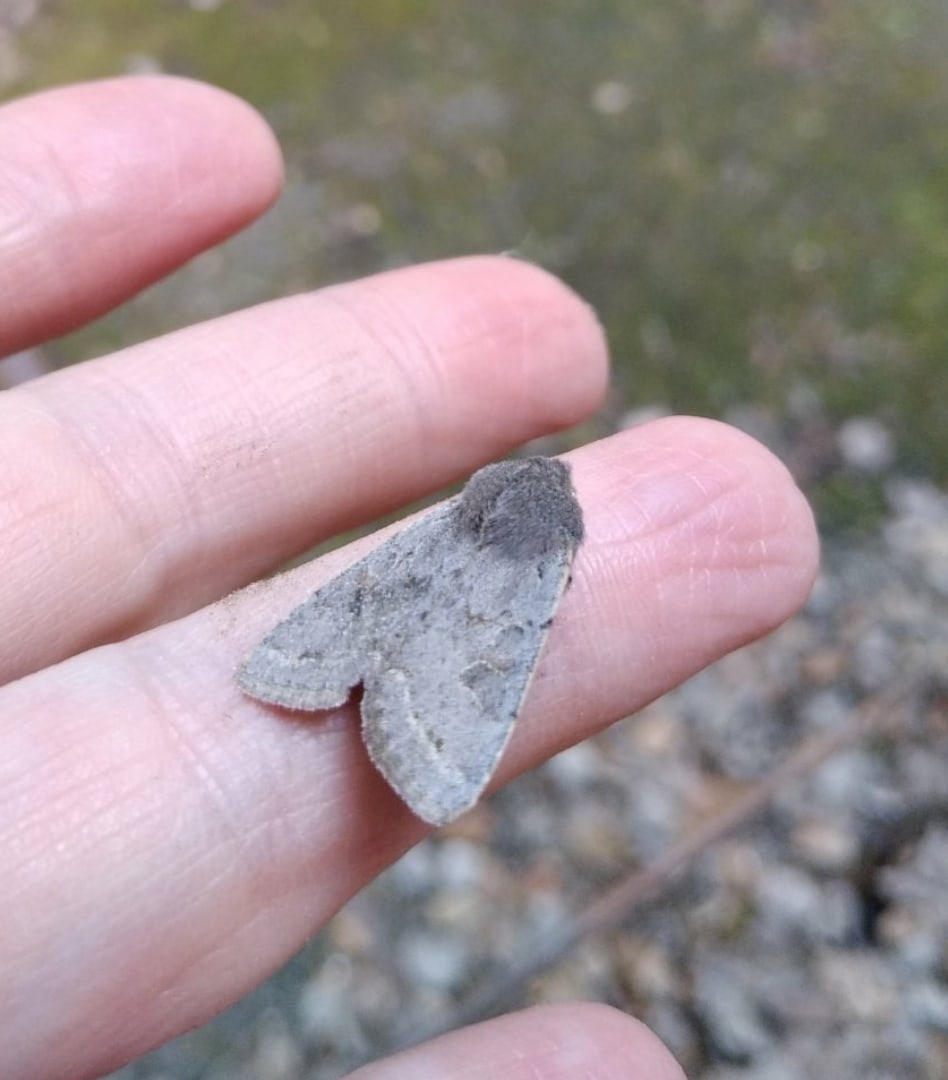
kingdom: Animalia
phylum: Arthropoda
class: Insecta
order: Lepidoptera
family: Noctuidae
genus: Orthosia
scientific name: Orthosia populeti
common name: Lead-coloured drab
